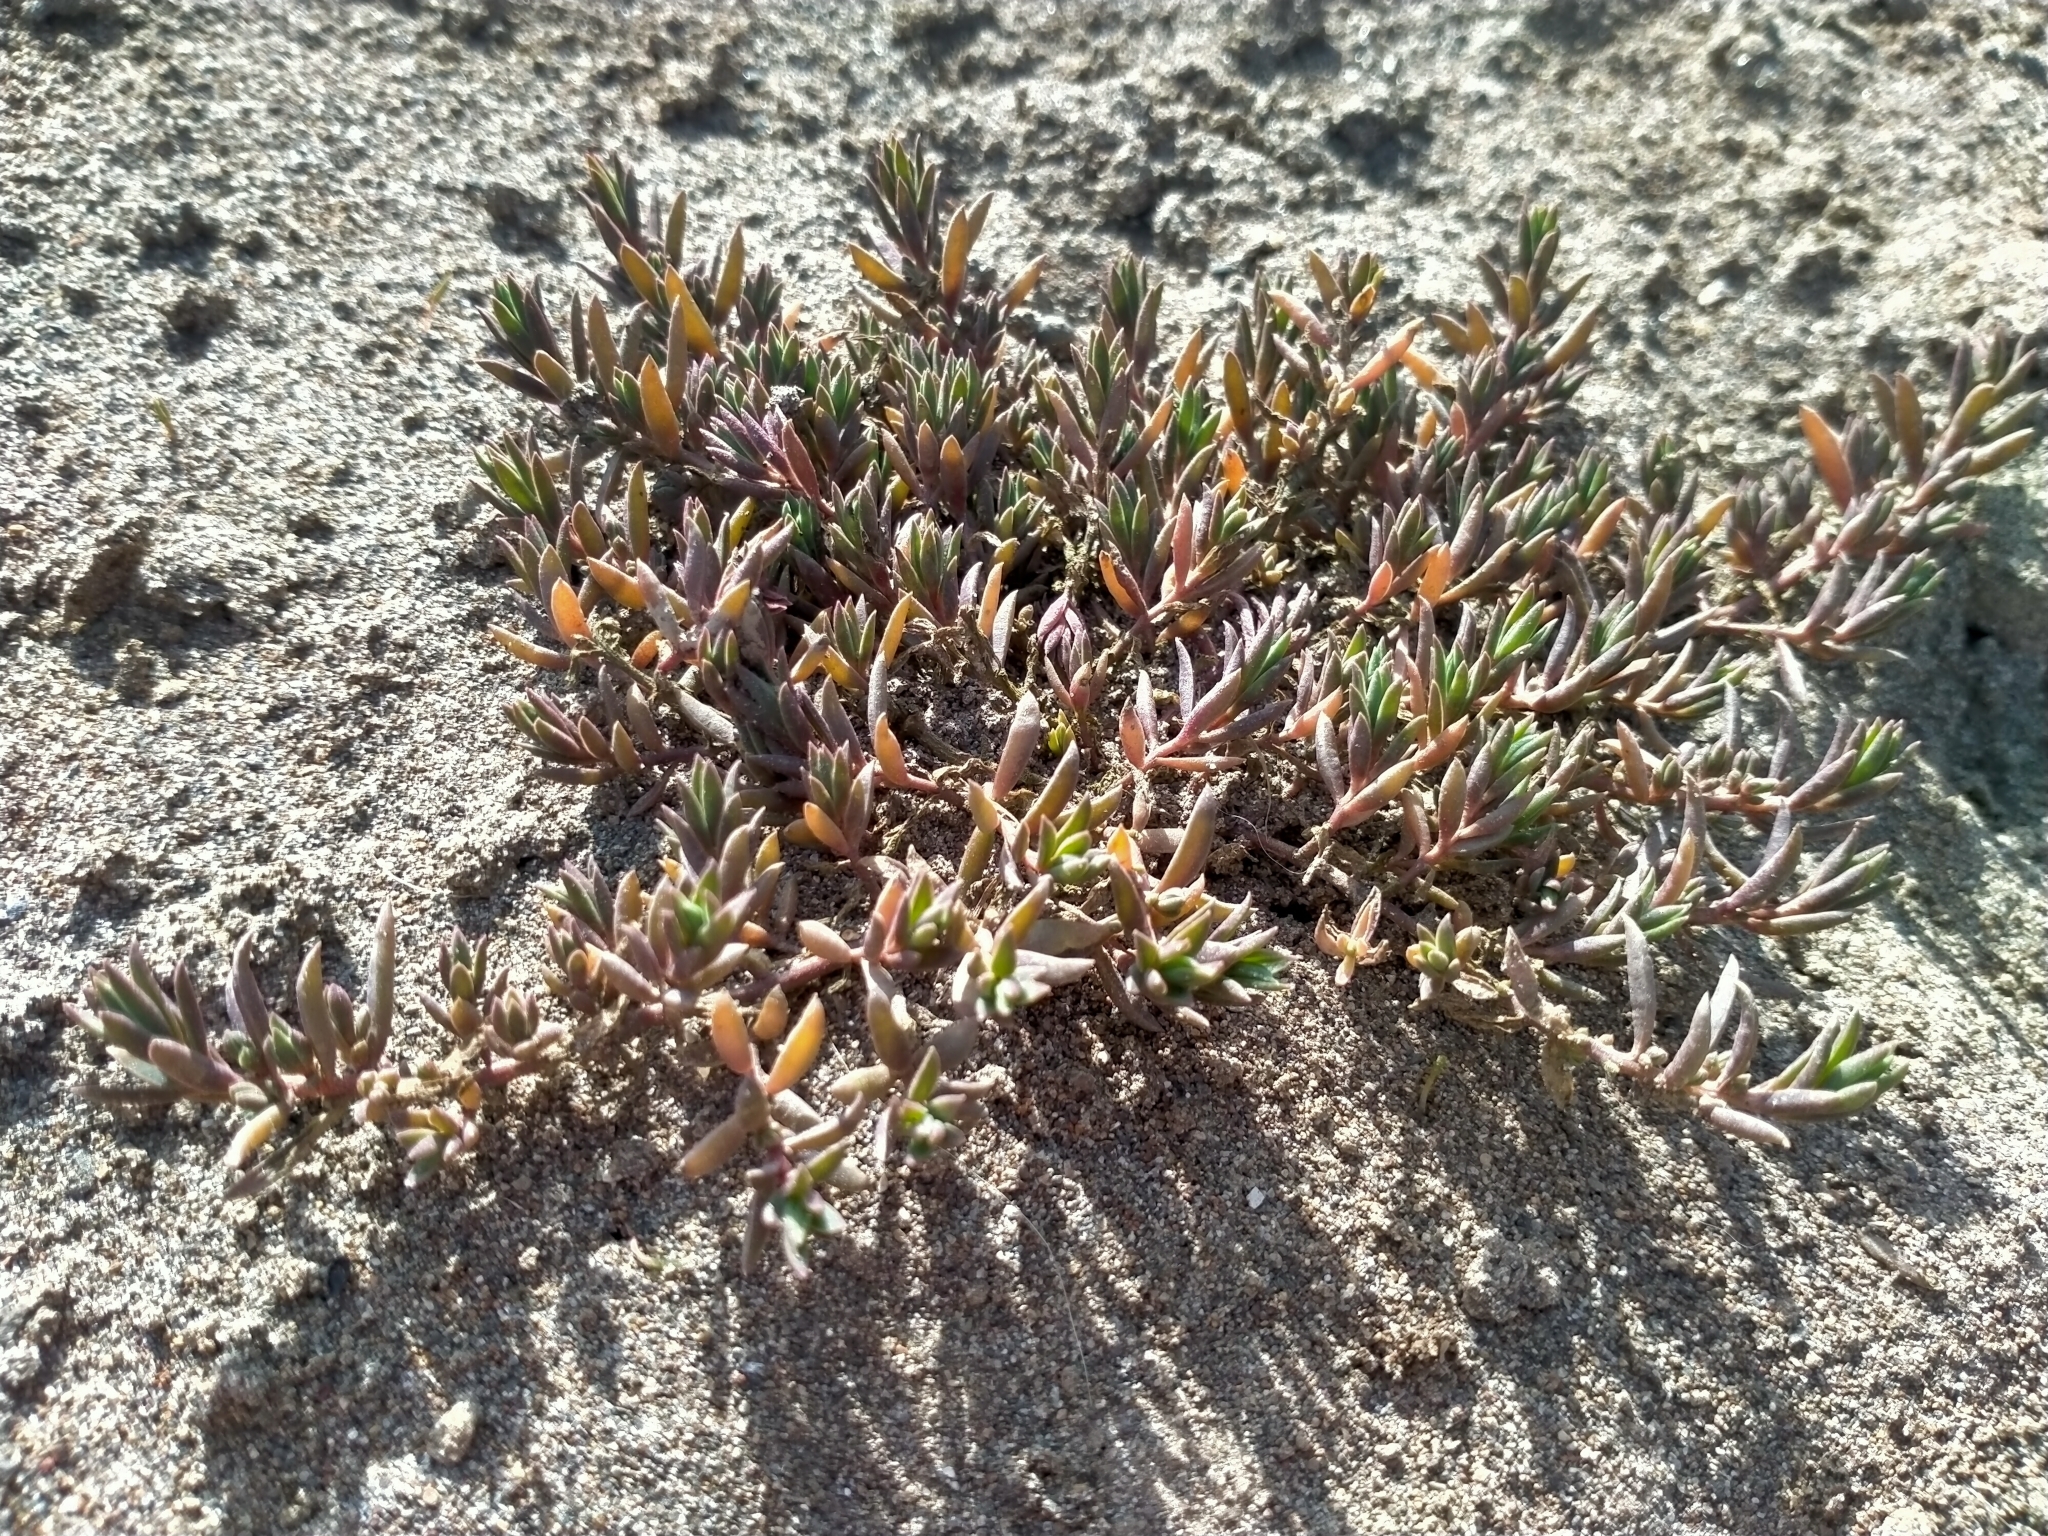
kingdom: Plantae
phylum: Tracheophyta
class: Magnoliopsida
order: Caryophyllales
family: Amaranthaceae
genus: Suaeda
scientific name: Suaeda novae-zelandiae
